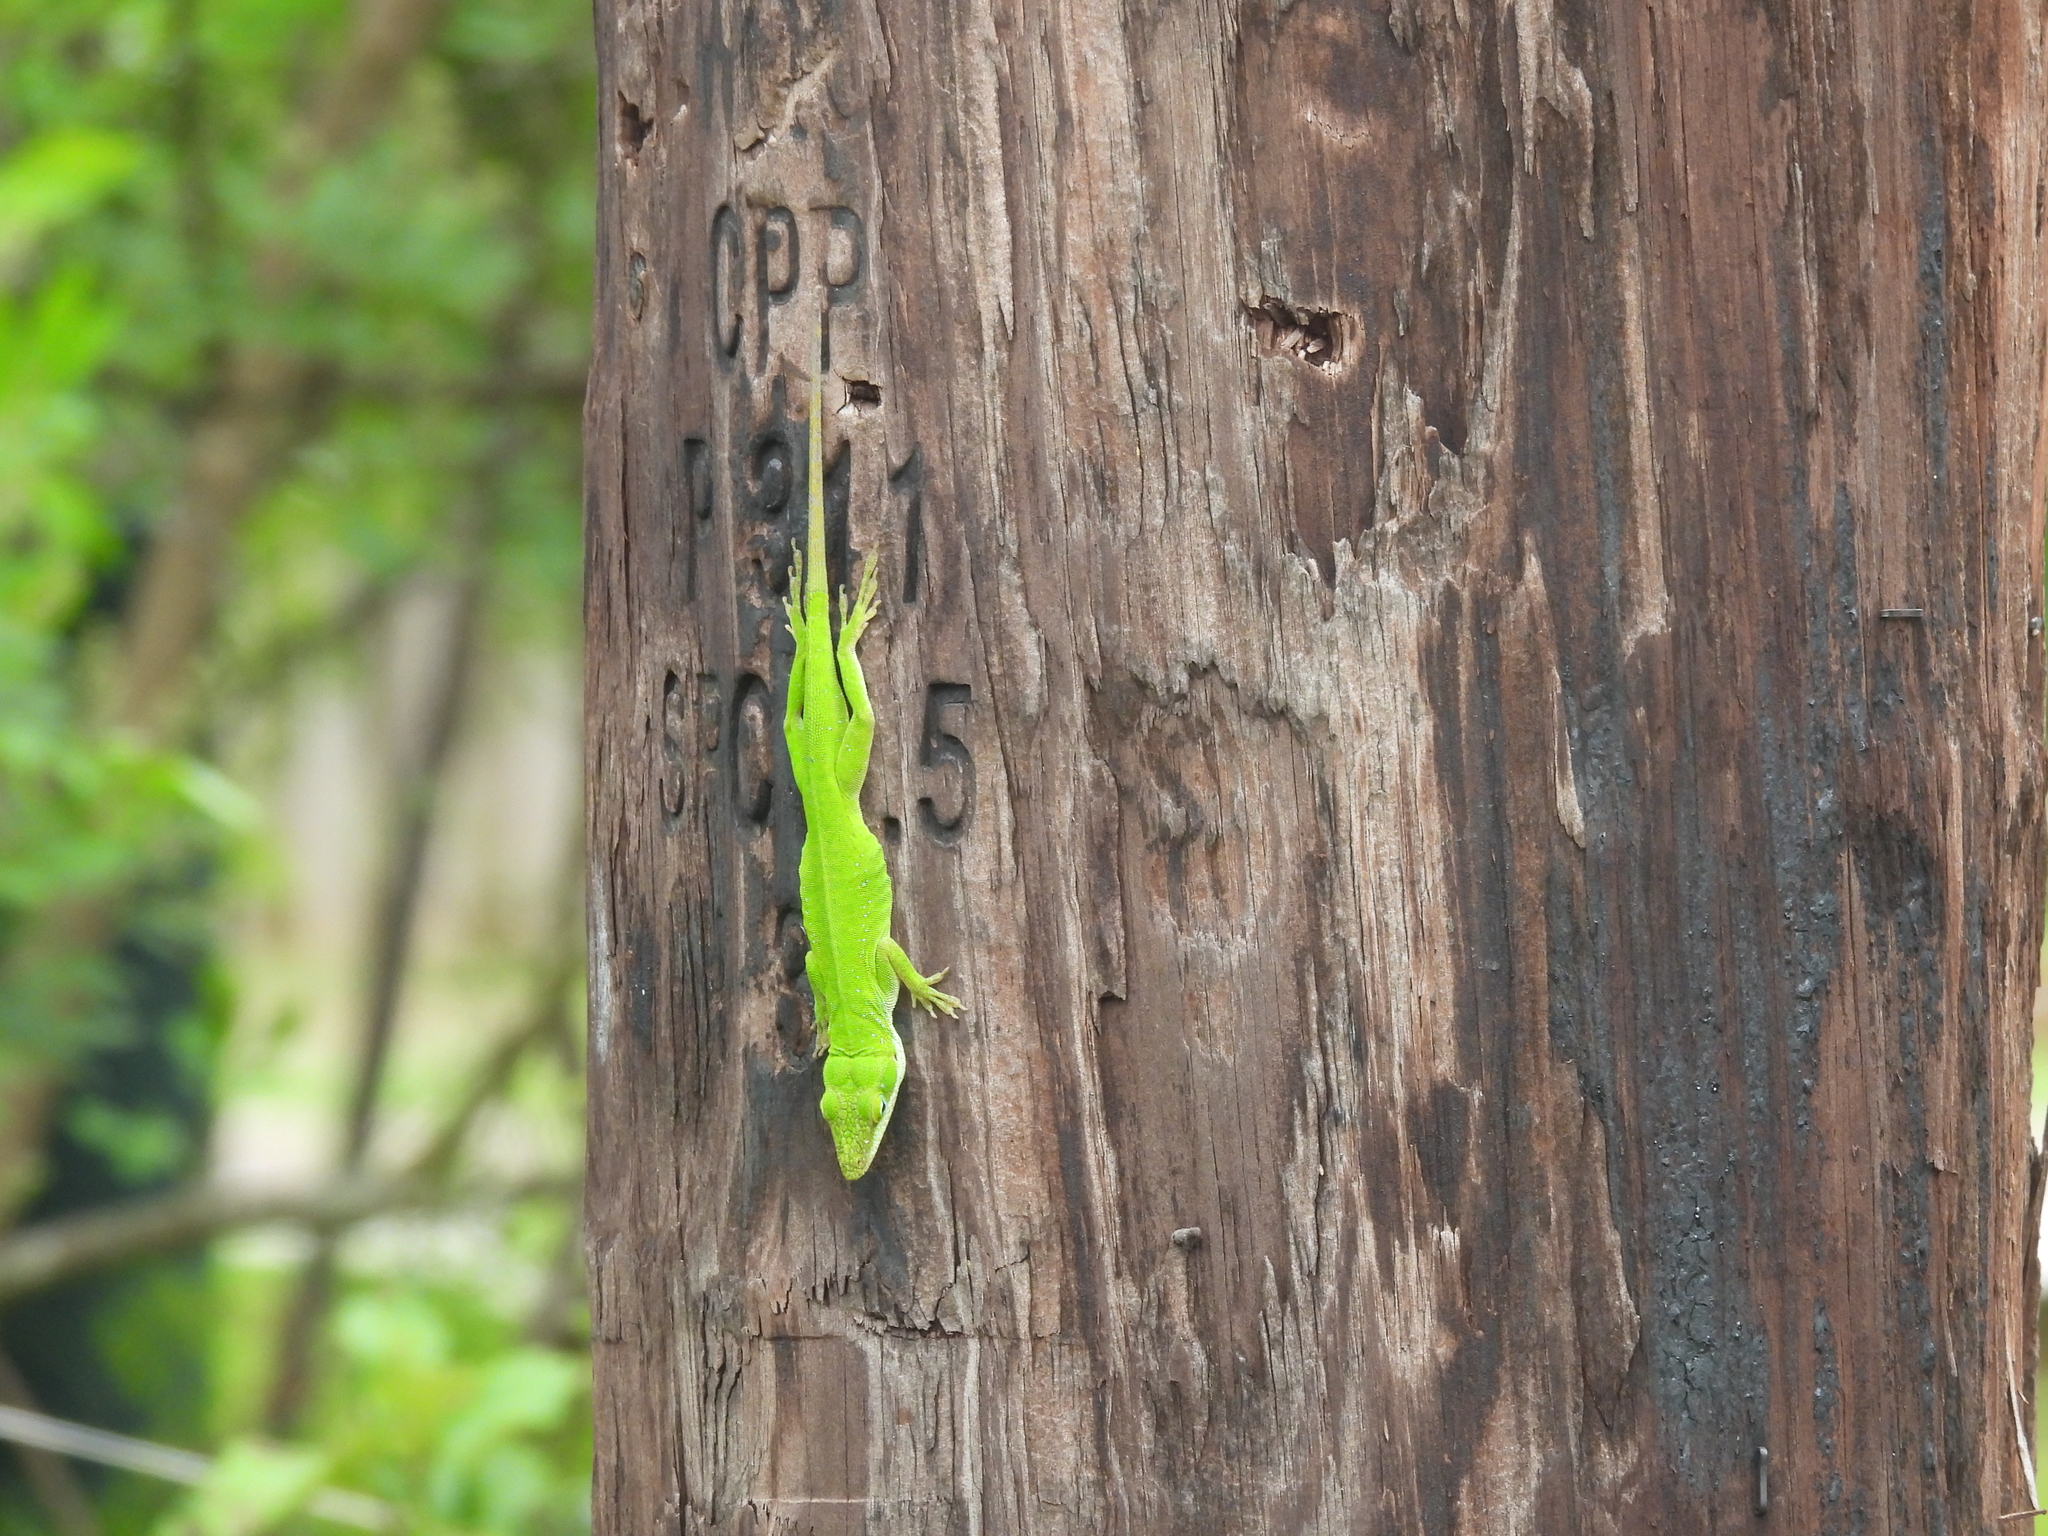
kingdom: Animalia
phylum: Chordata
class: Squamata
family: Dactyloidae
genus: Anolis
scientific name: Anolis carolinensis
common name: Green anole
